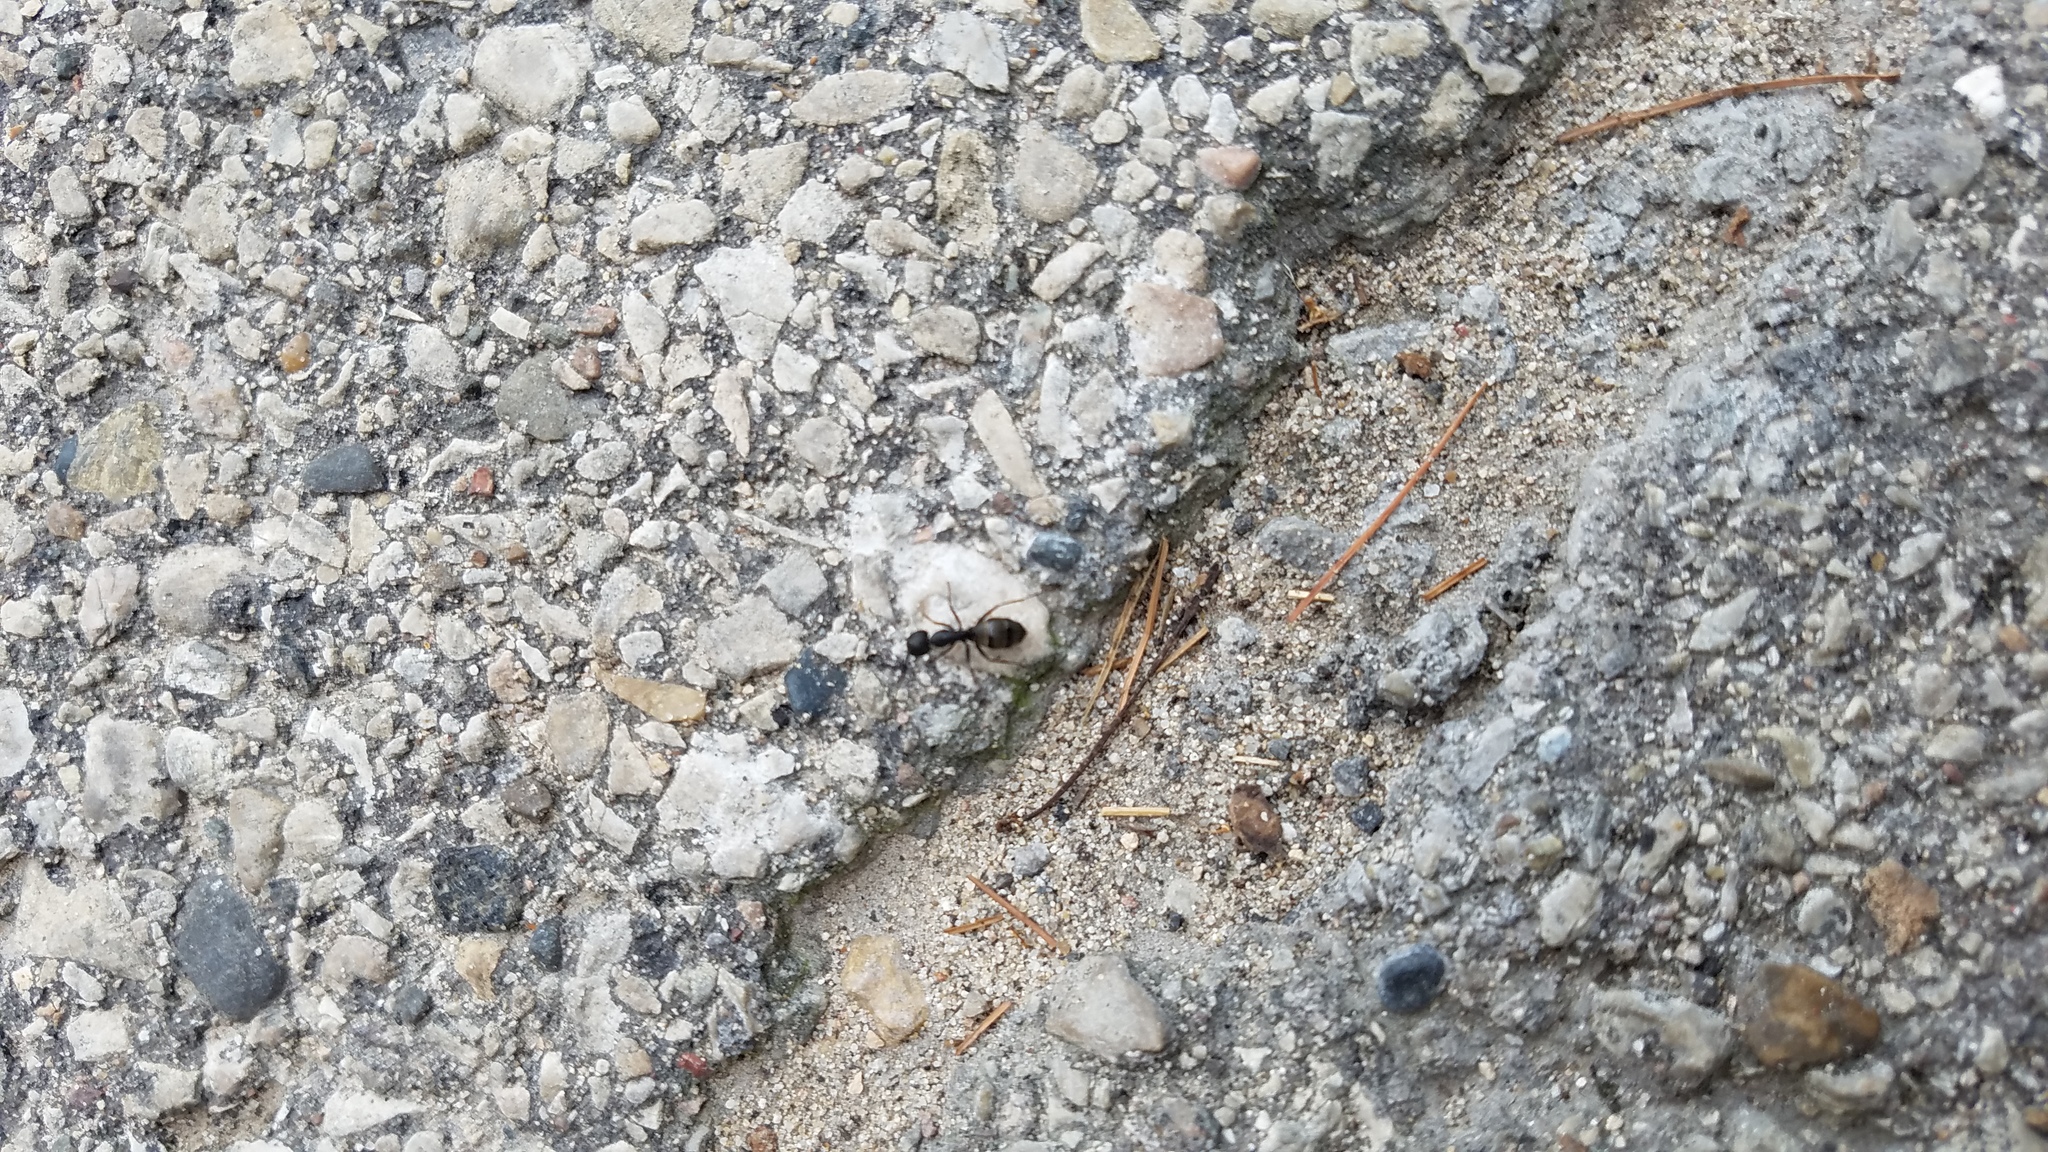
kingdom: Animalia
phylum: Arthropoda
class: Insecta
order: Hymenoptera
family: Formicidae
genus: Camponotus
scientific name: Camponotus pennsylvanicus
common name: Black carpenter ant
